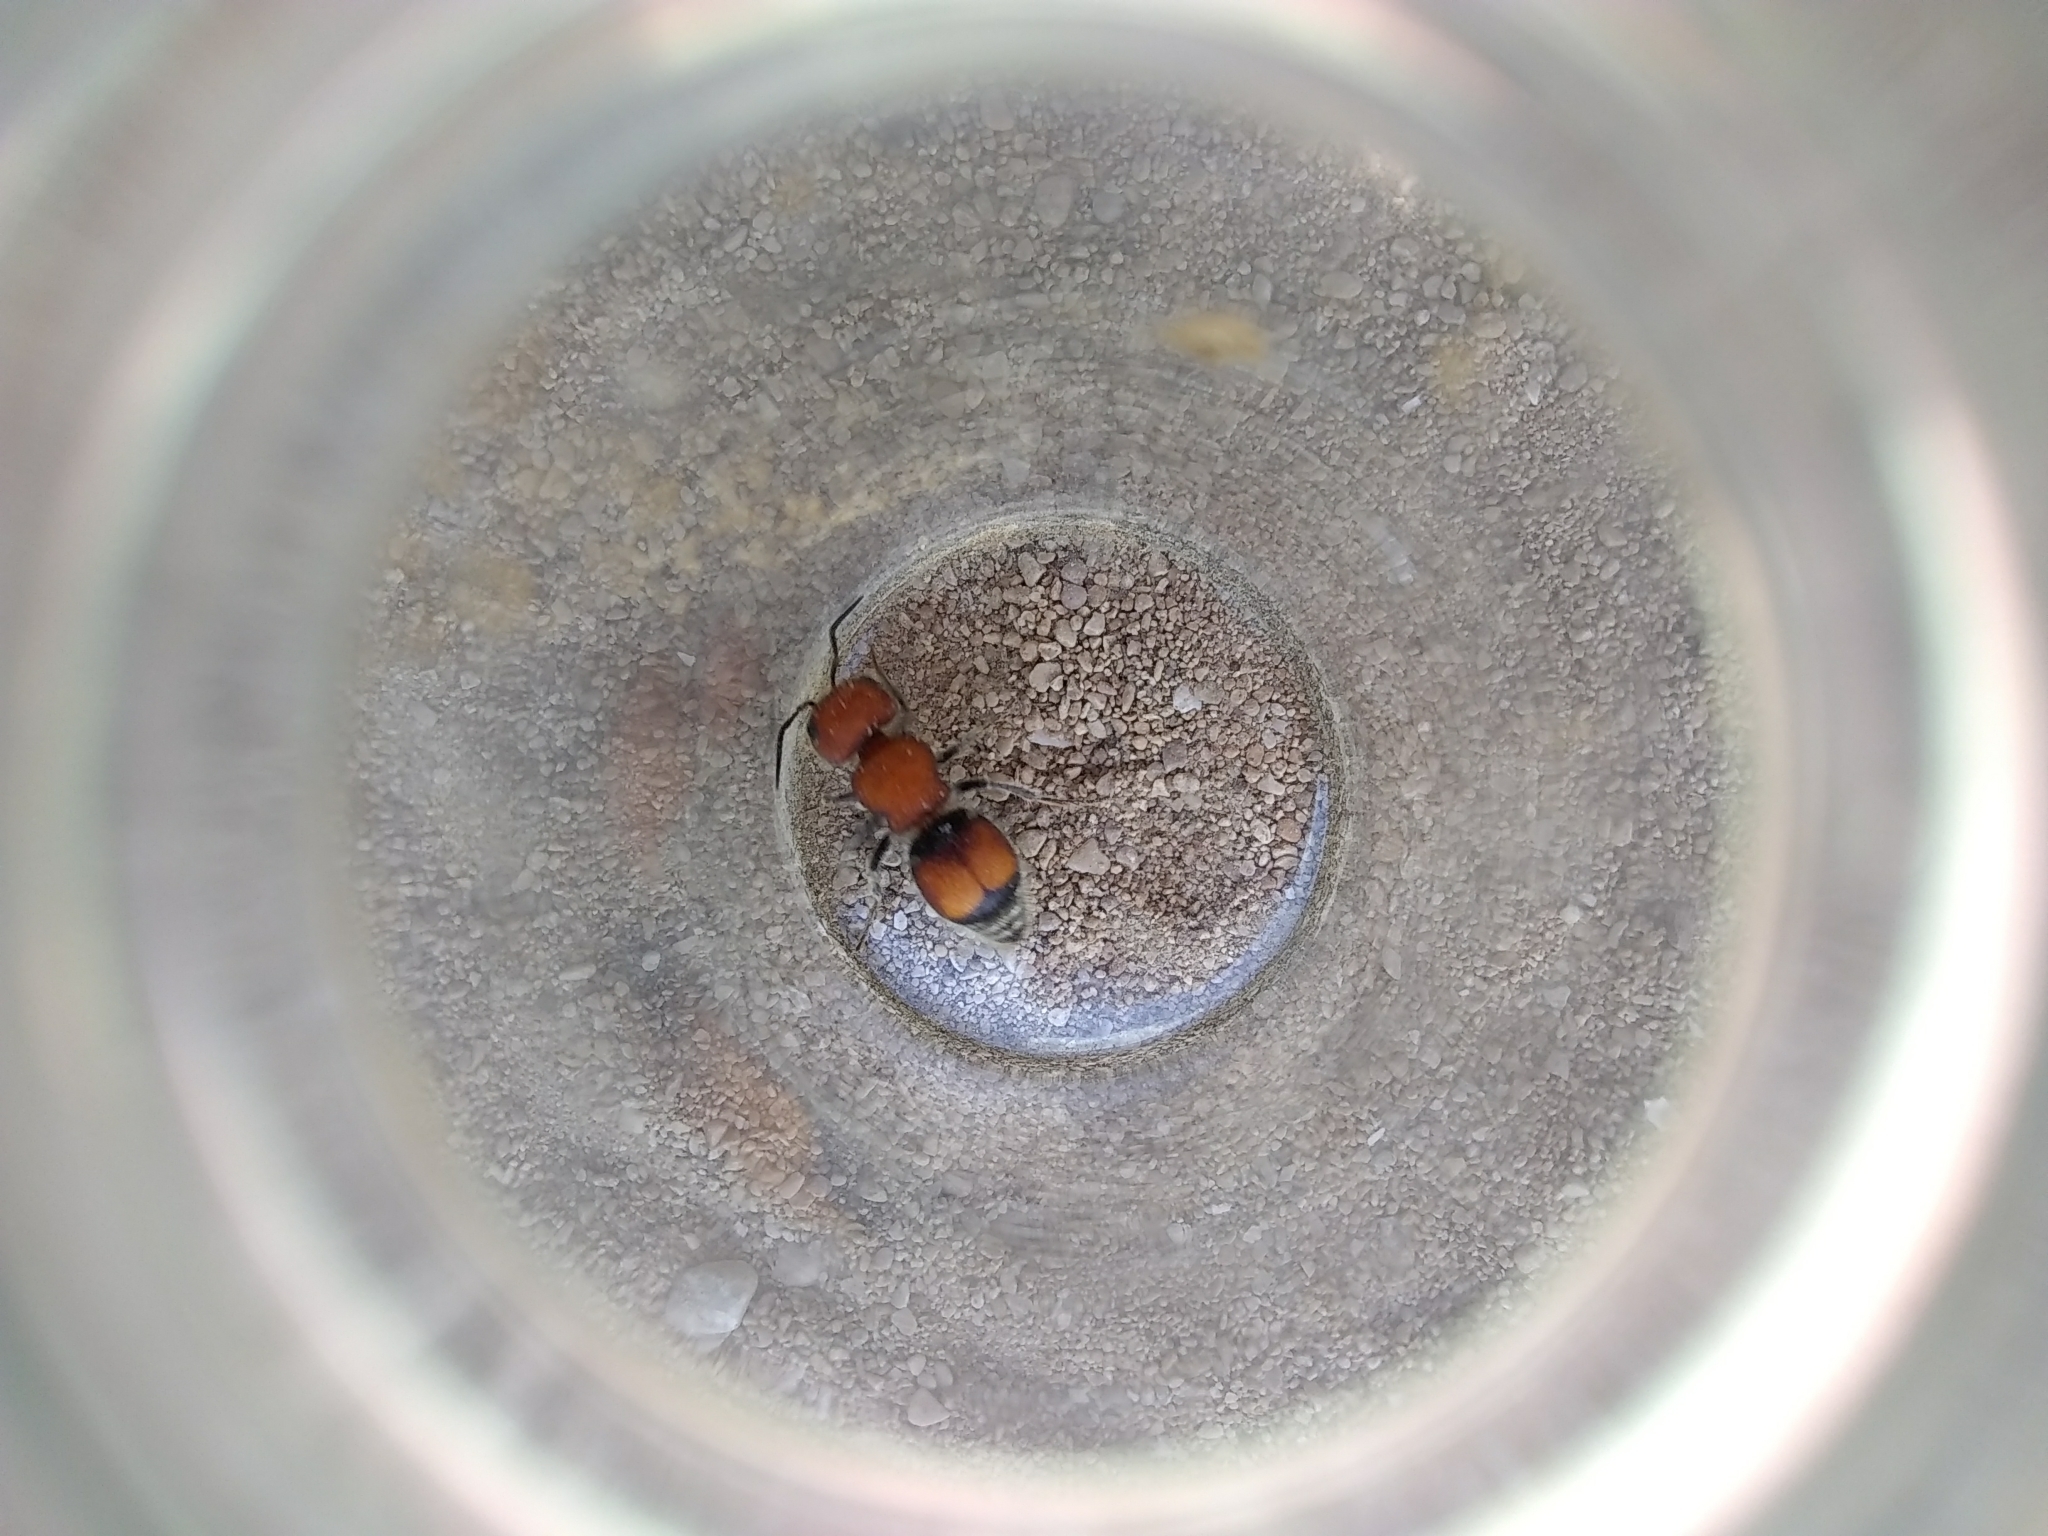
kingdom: Animalia
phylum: Arthropoda
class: Insecta
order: Hymenoptera
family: Mutillidae
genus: Pseudomethoca
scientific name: Pseudomethoca
